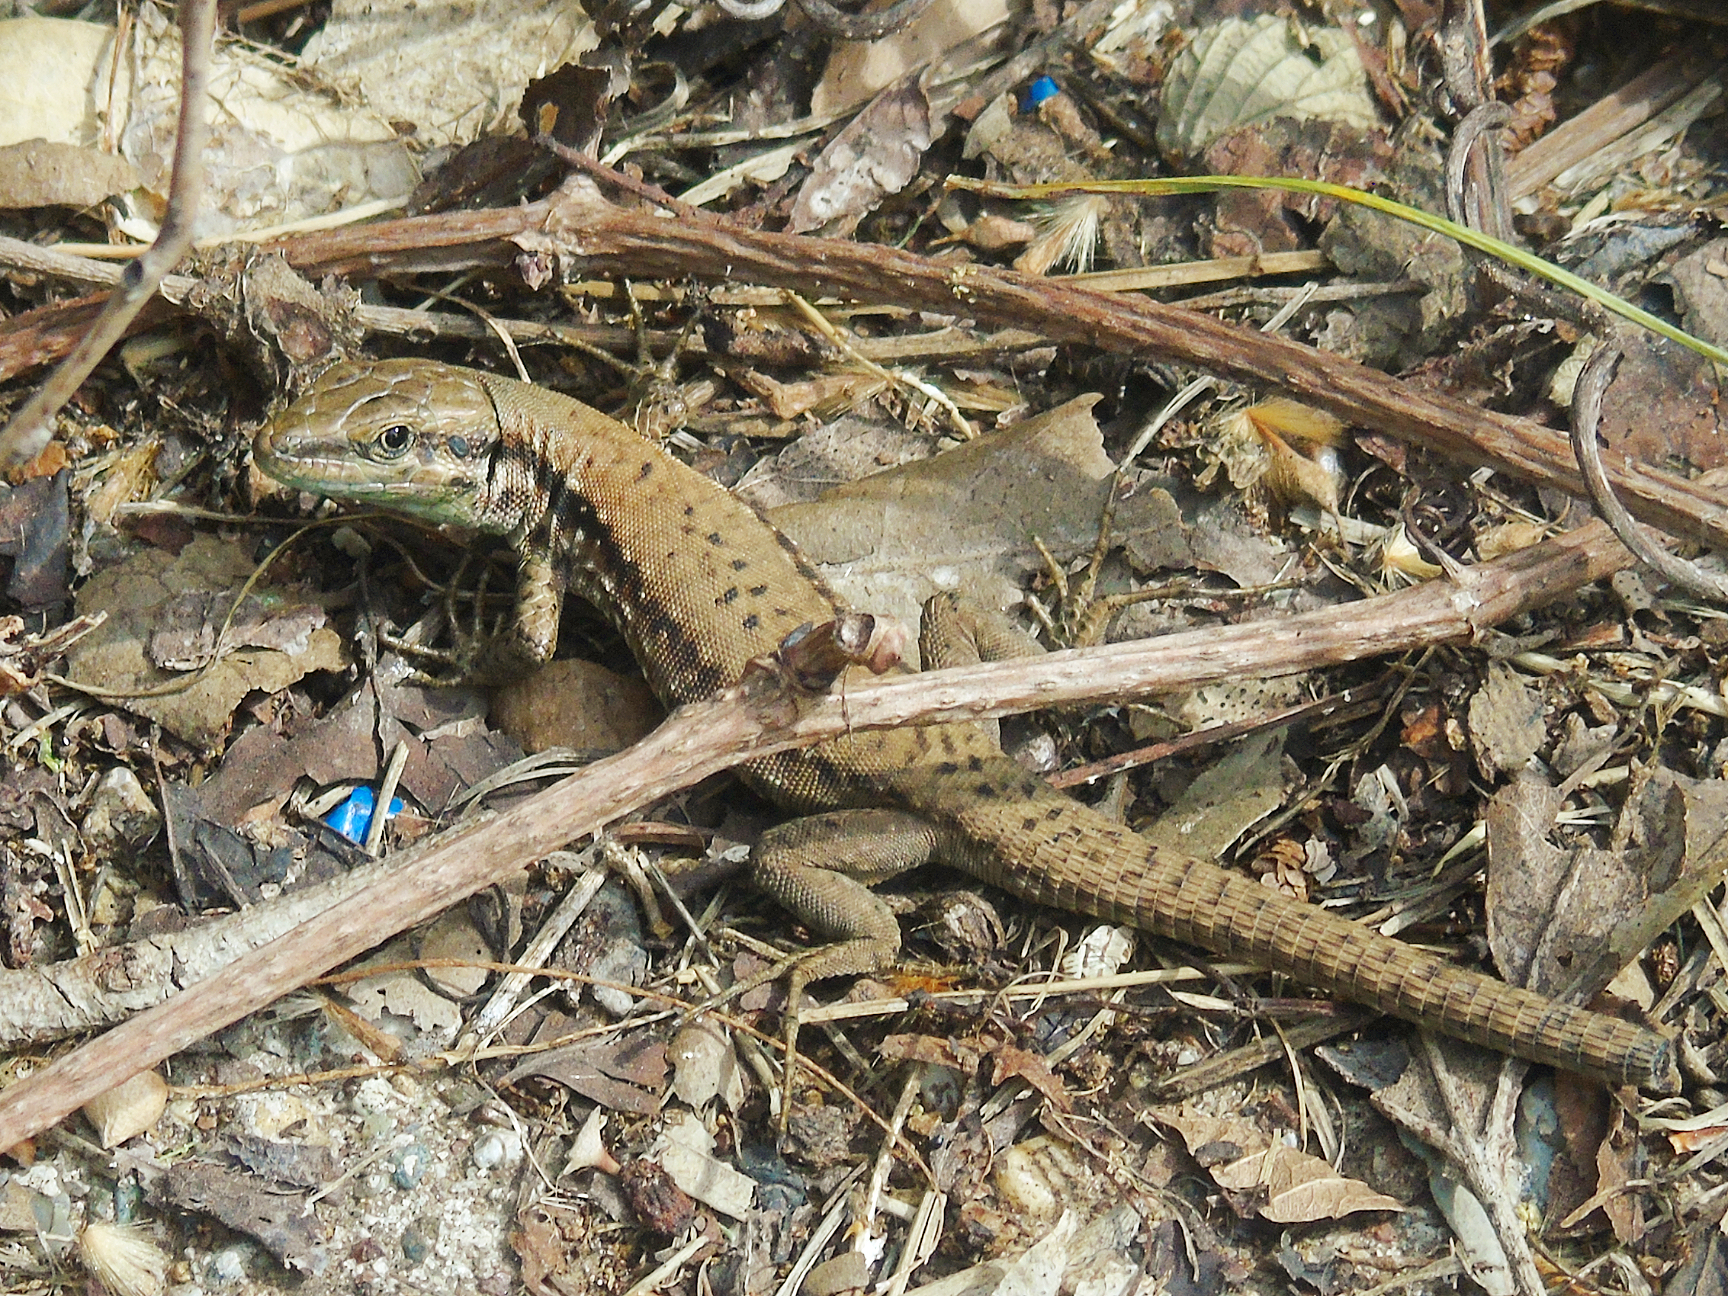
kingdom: Animalia
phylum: Chordata
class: Squamata
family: Lacertidae
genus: Phoenicolacerta
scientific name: Phoenicolacerta laevis
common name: Lebanon lizard
